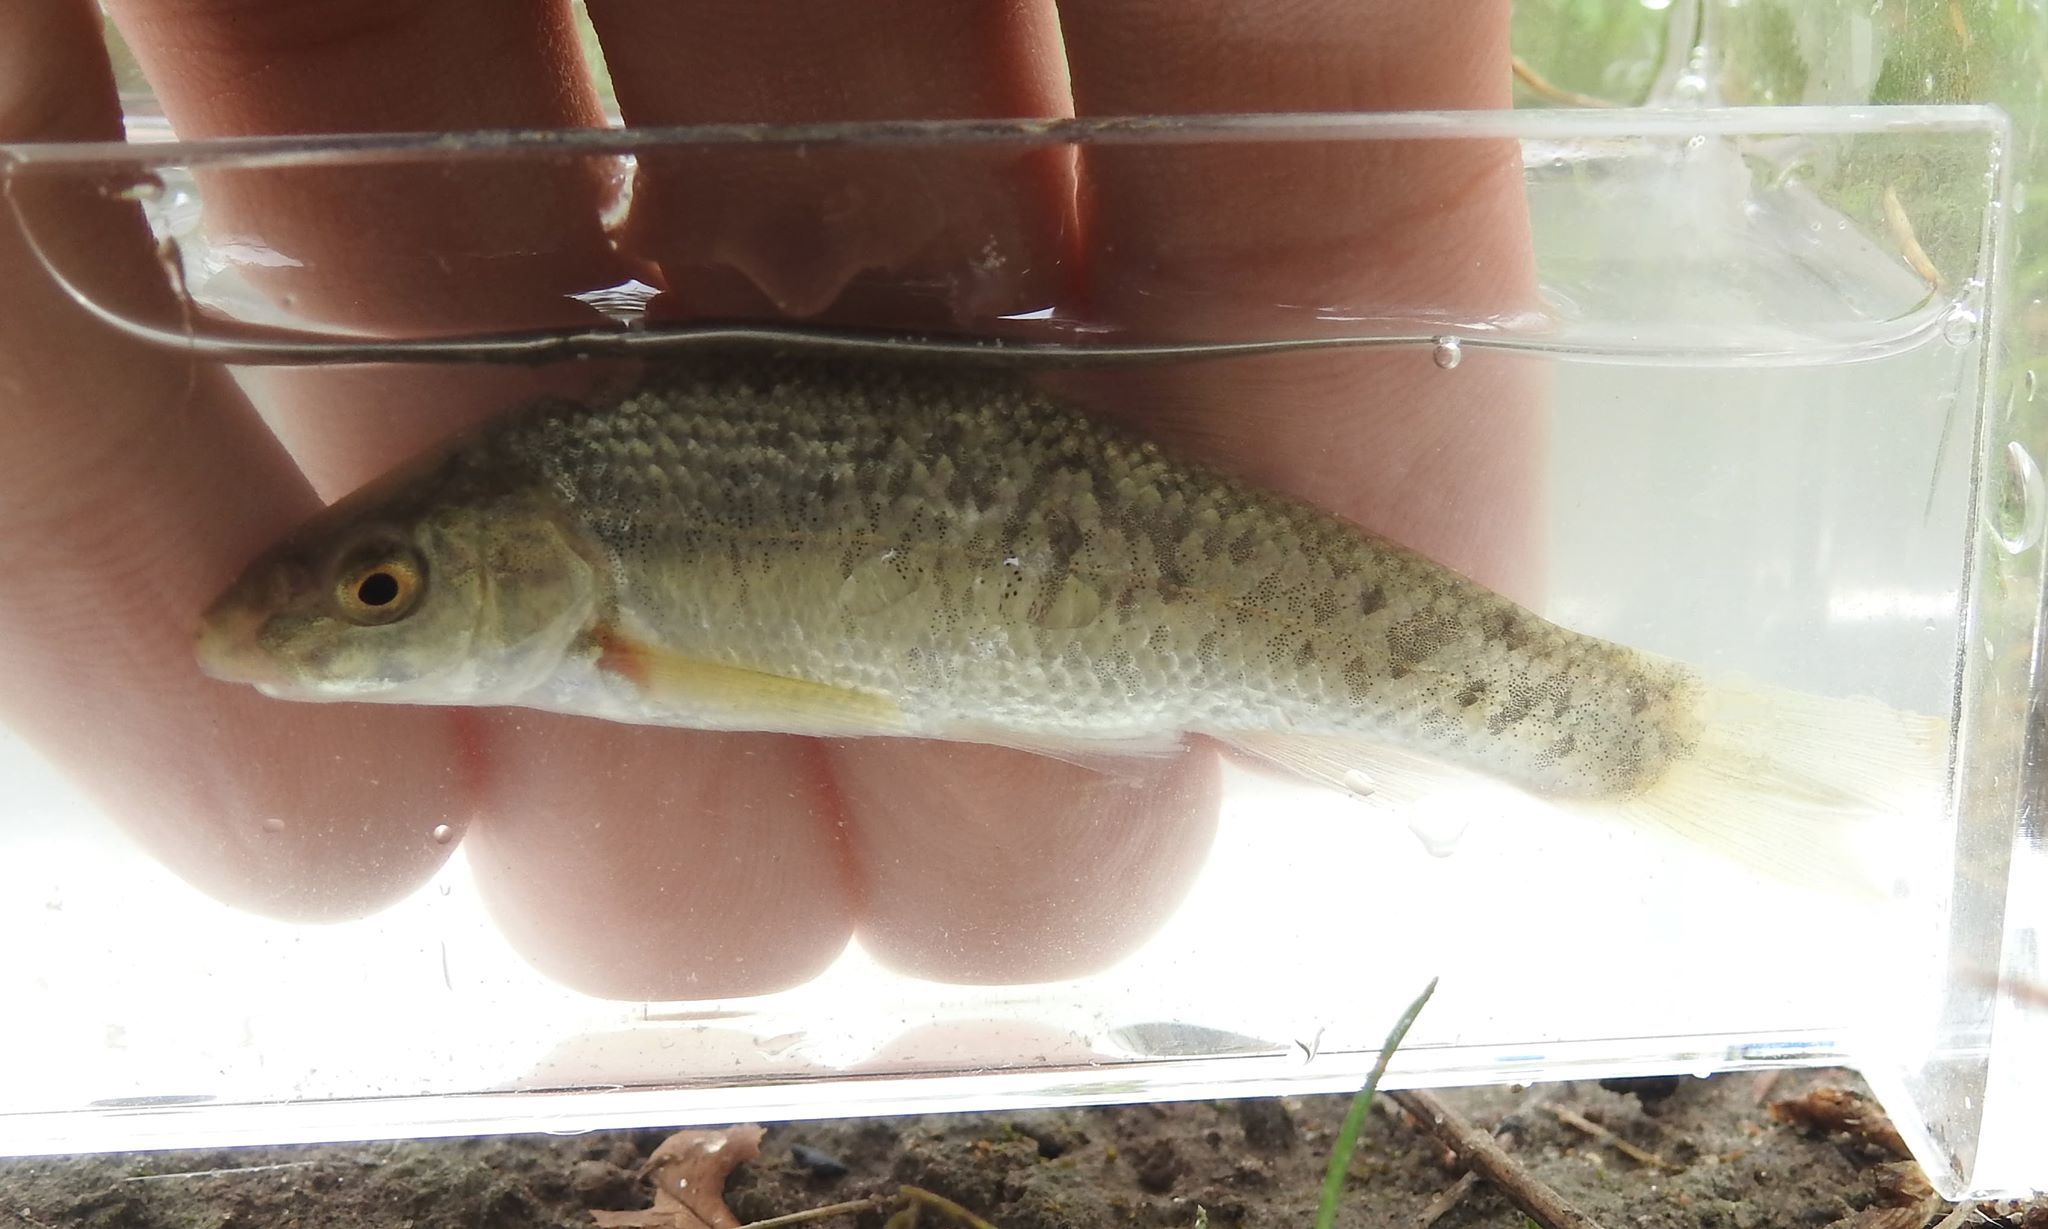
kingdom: Animalia
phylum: Chordata
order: Cypriniformes
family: Cyprinidae
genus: Campostoma
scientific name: Campostoma anomalum
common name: Central stoneroller
